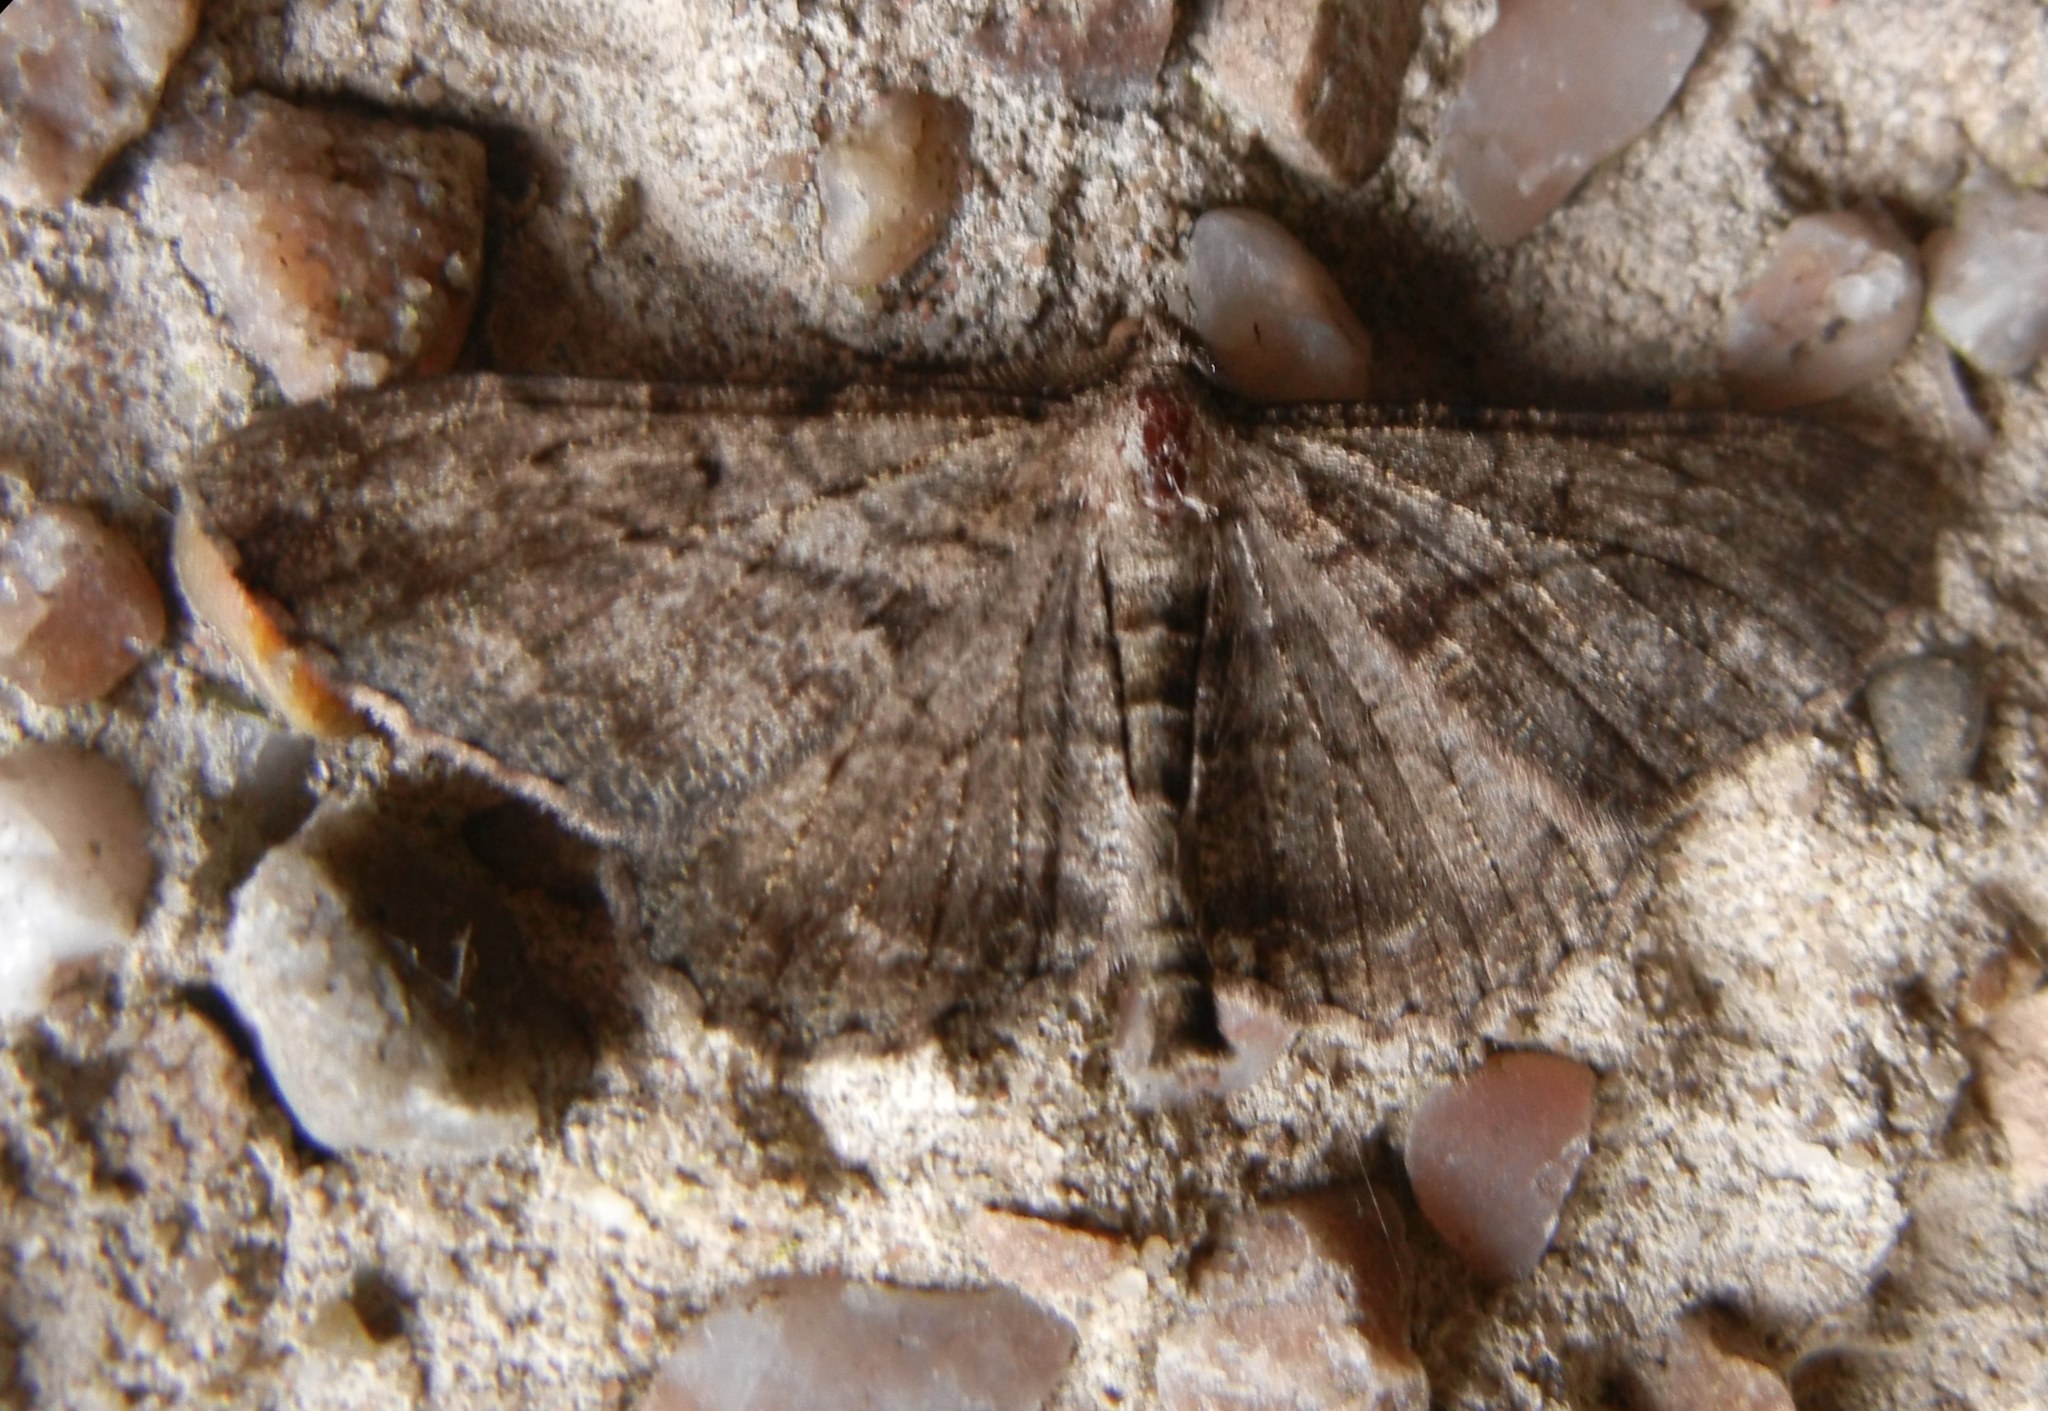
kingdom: Animalia
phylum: Arthropoda
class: Insecta
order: Lepidoptera
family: Geometridae
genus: Peribatodes
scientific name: Peribatodes rhomboidaria
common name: Willow beauty
